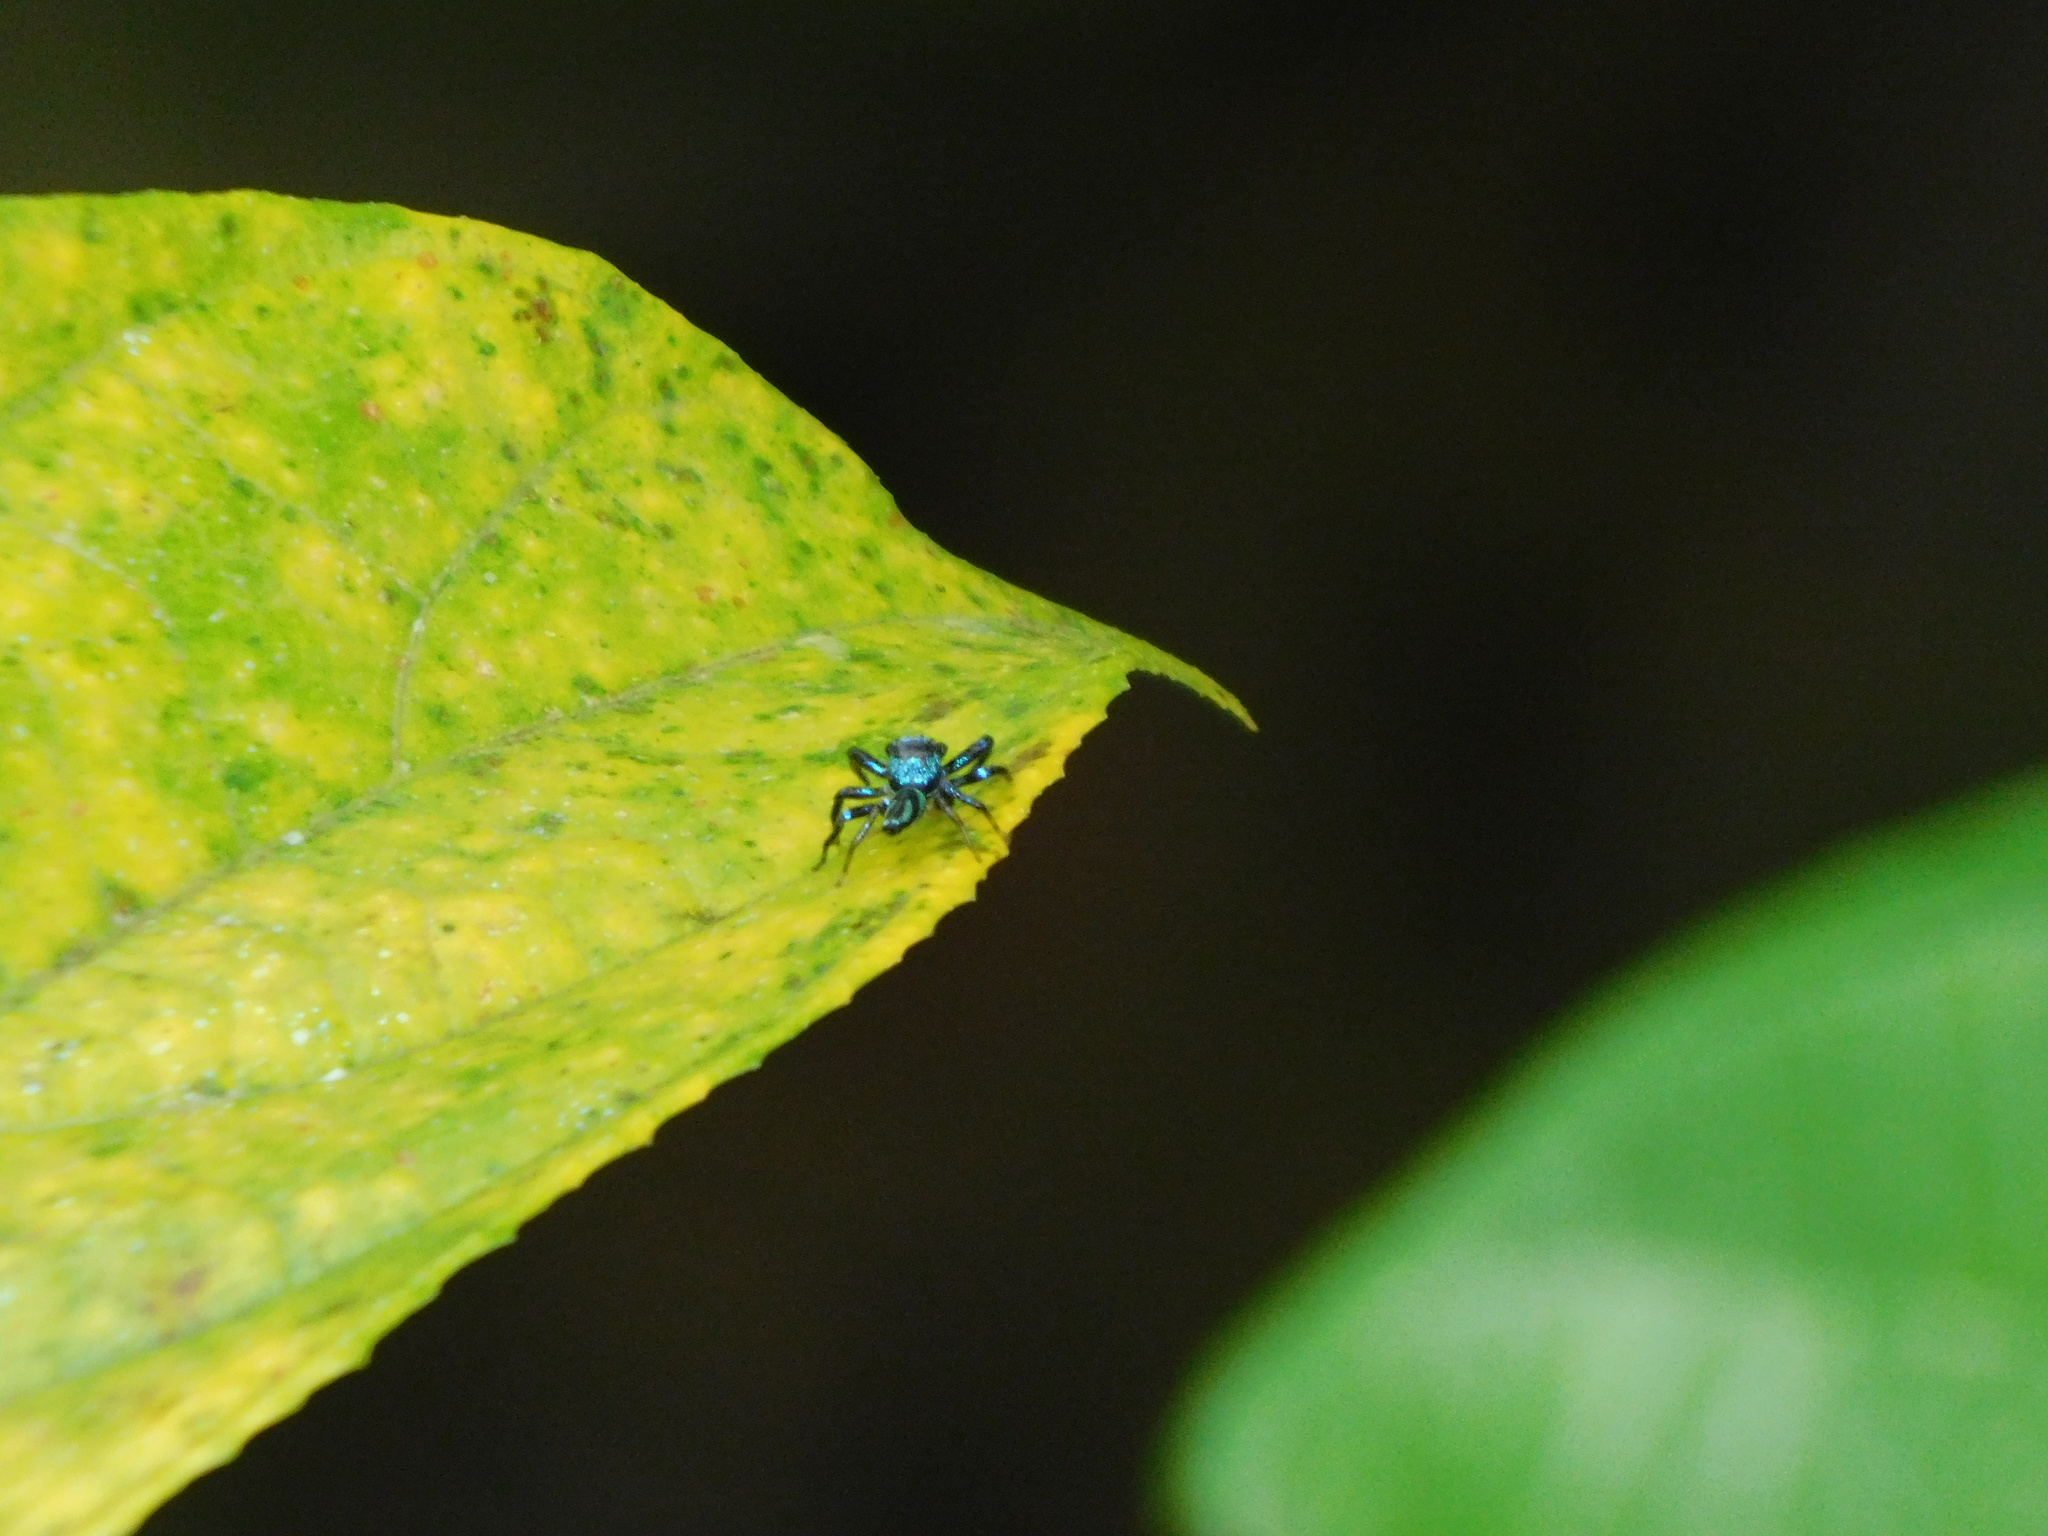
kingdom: Animalia
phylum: Arthropoda
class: Arachnida
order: Araneae
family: Salticidae
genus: Thiania
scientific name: Thiania bhamoensis
